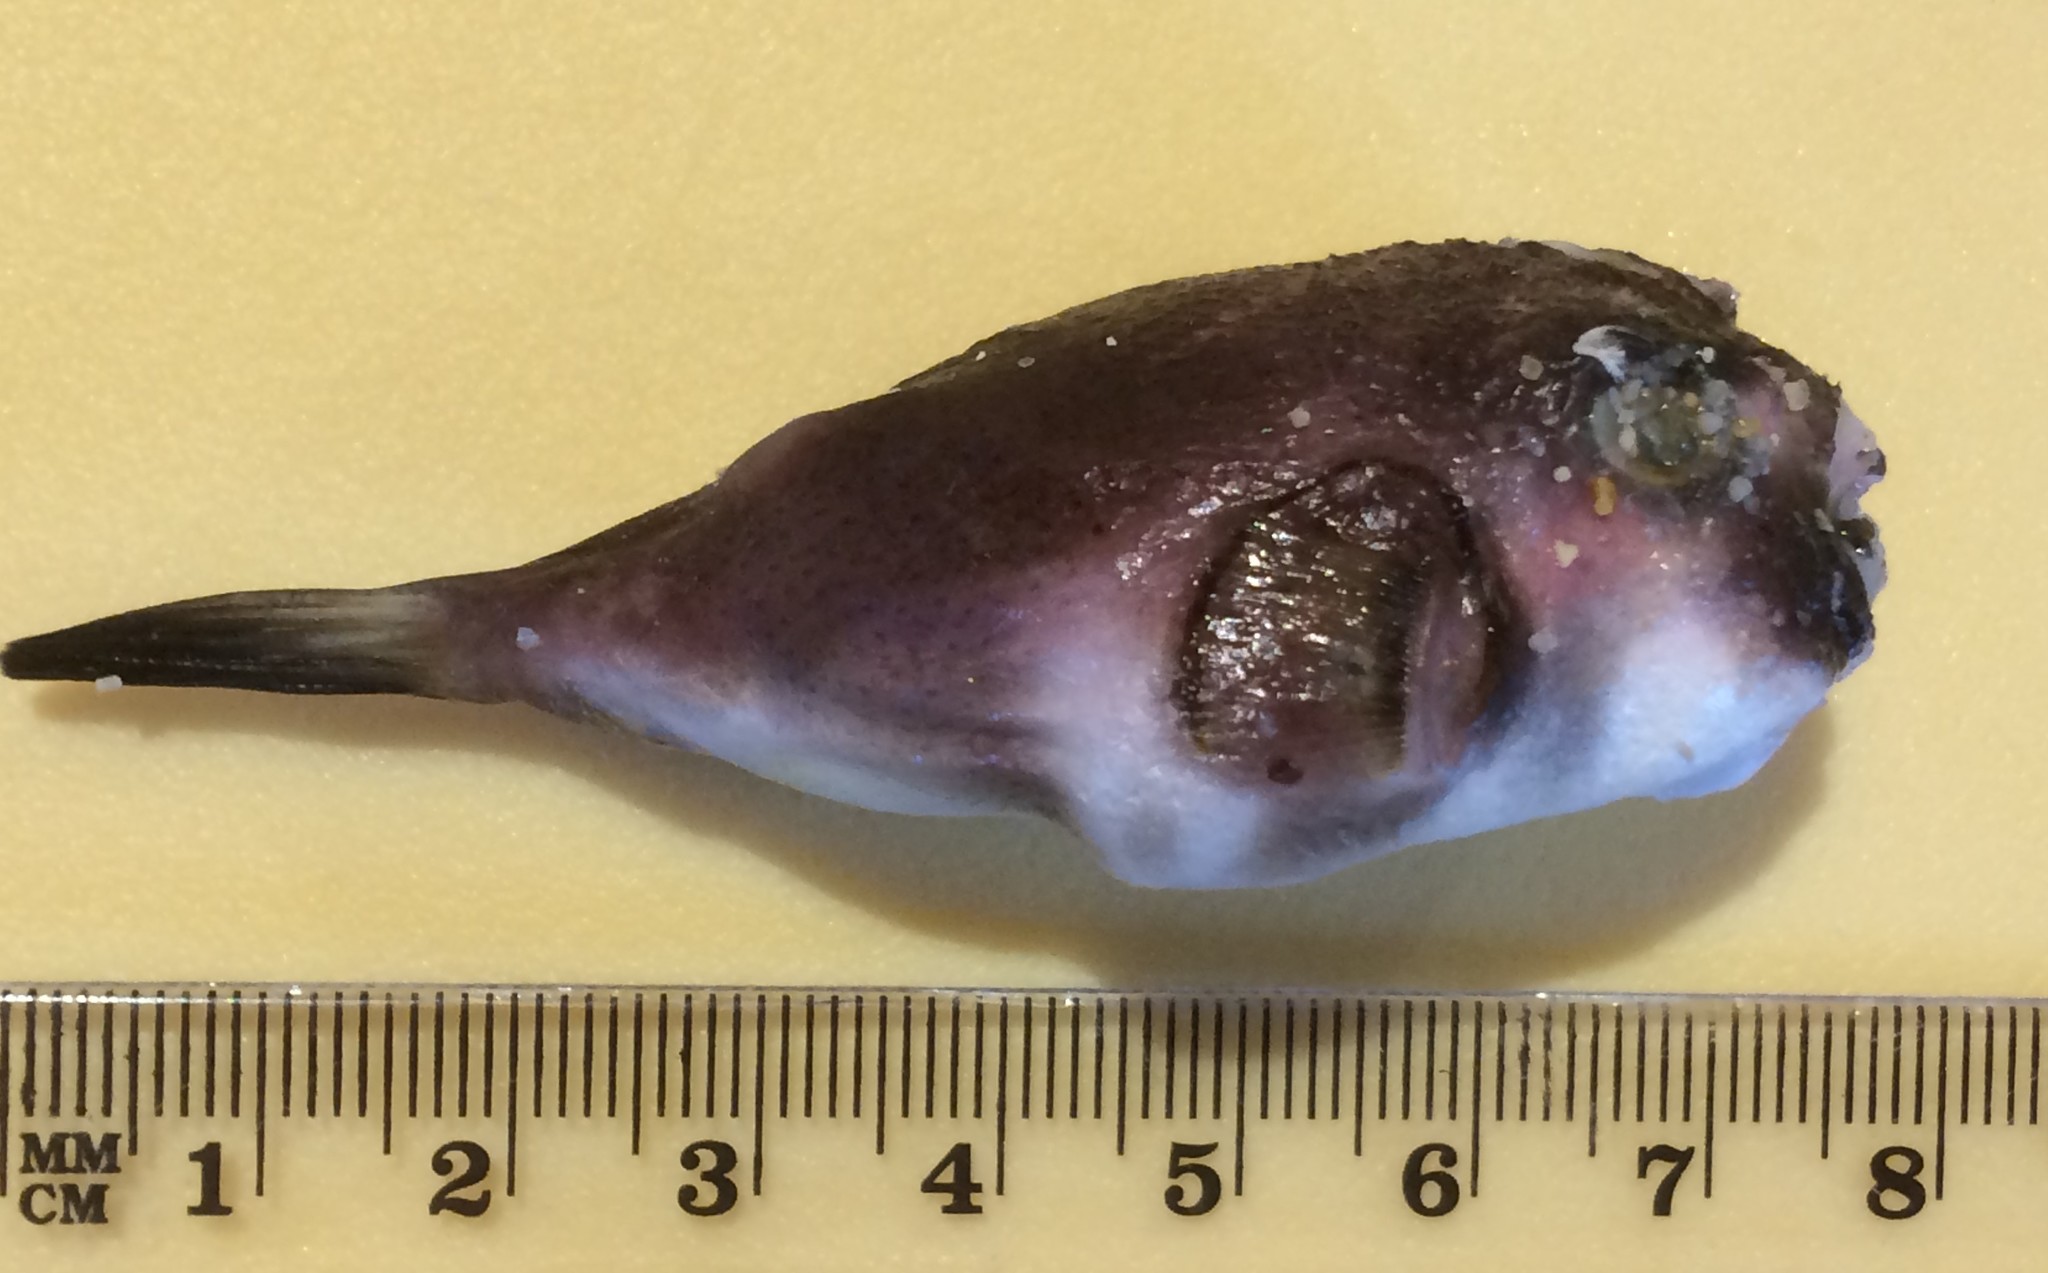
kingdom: Animalia
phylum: Chordata
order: Tetraodontiformes
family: Tetraodontidae
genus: Omegophora
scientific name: Omegophora armilla
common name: Ringed pufferfish
